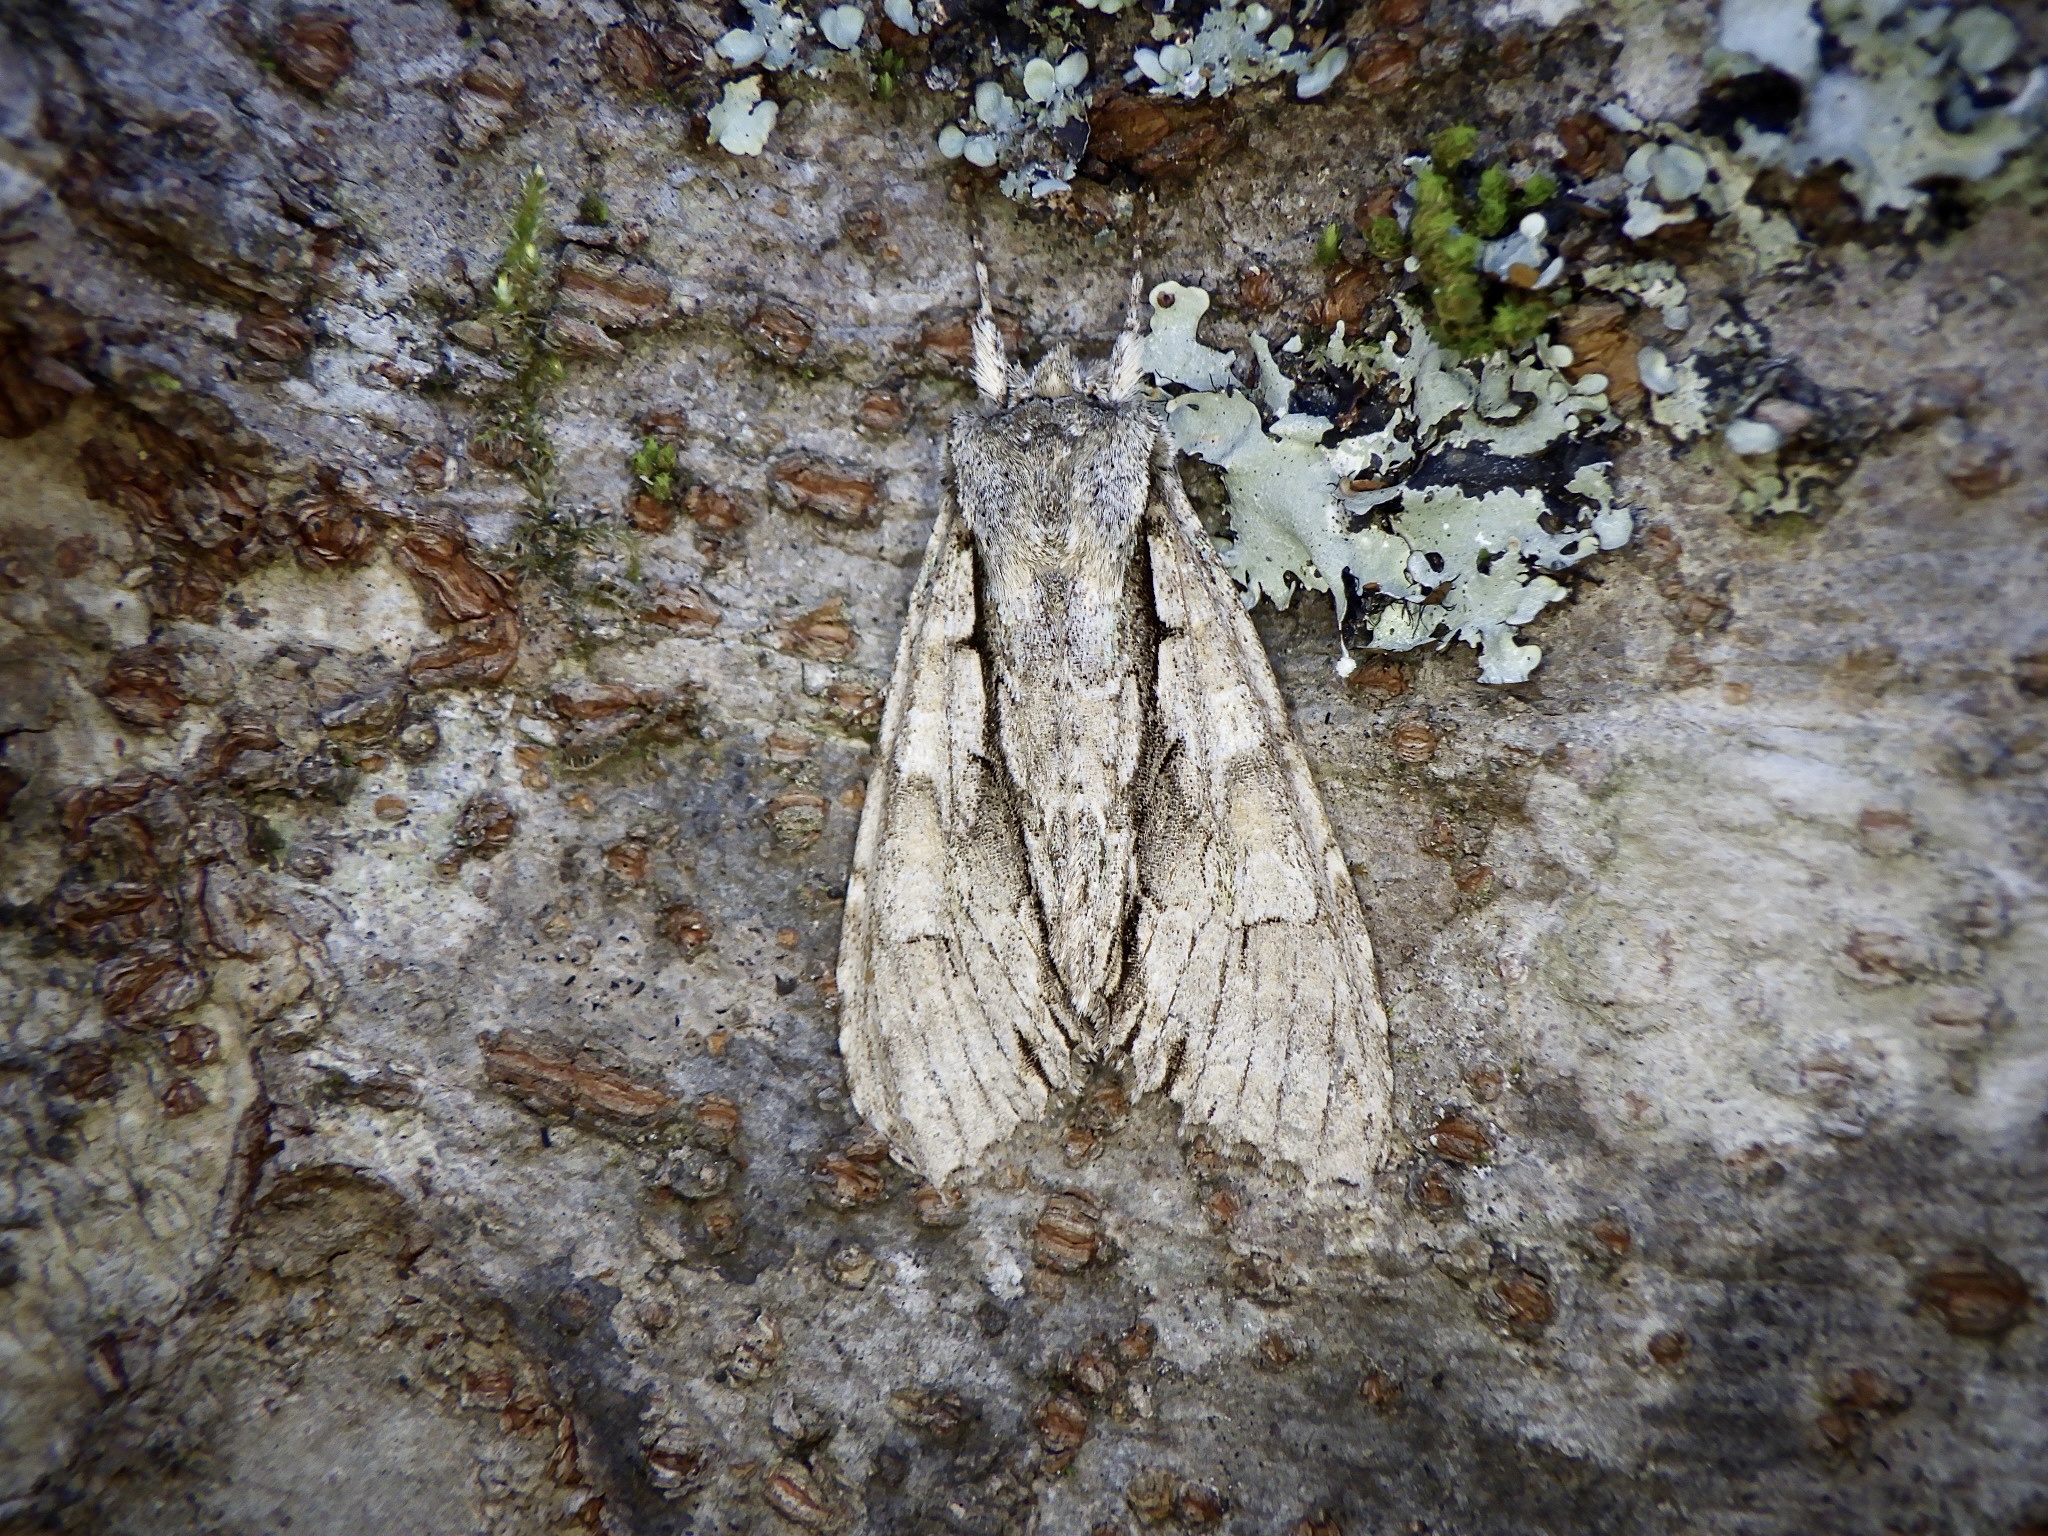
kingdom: Animalia
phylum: Arthropoda
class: Insecta
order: Lepidoptera
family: Noctuidae
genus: Meganephria
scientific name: Meganephria
